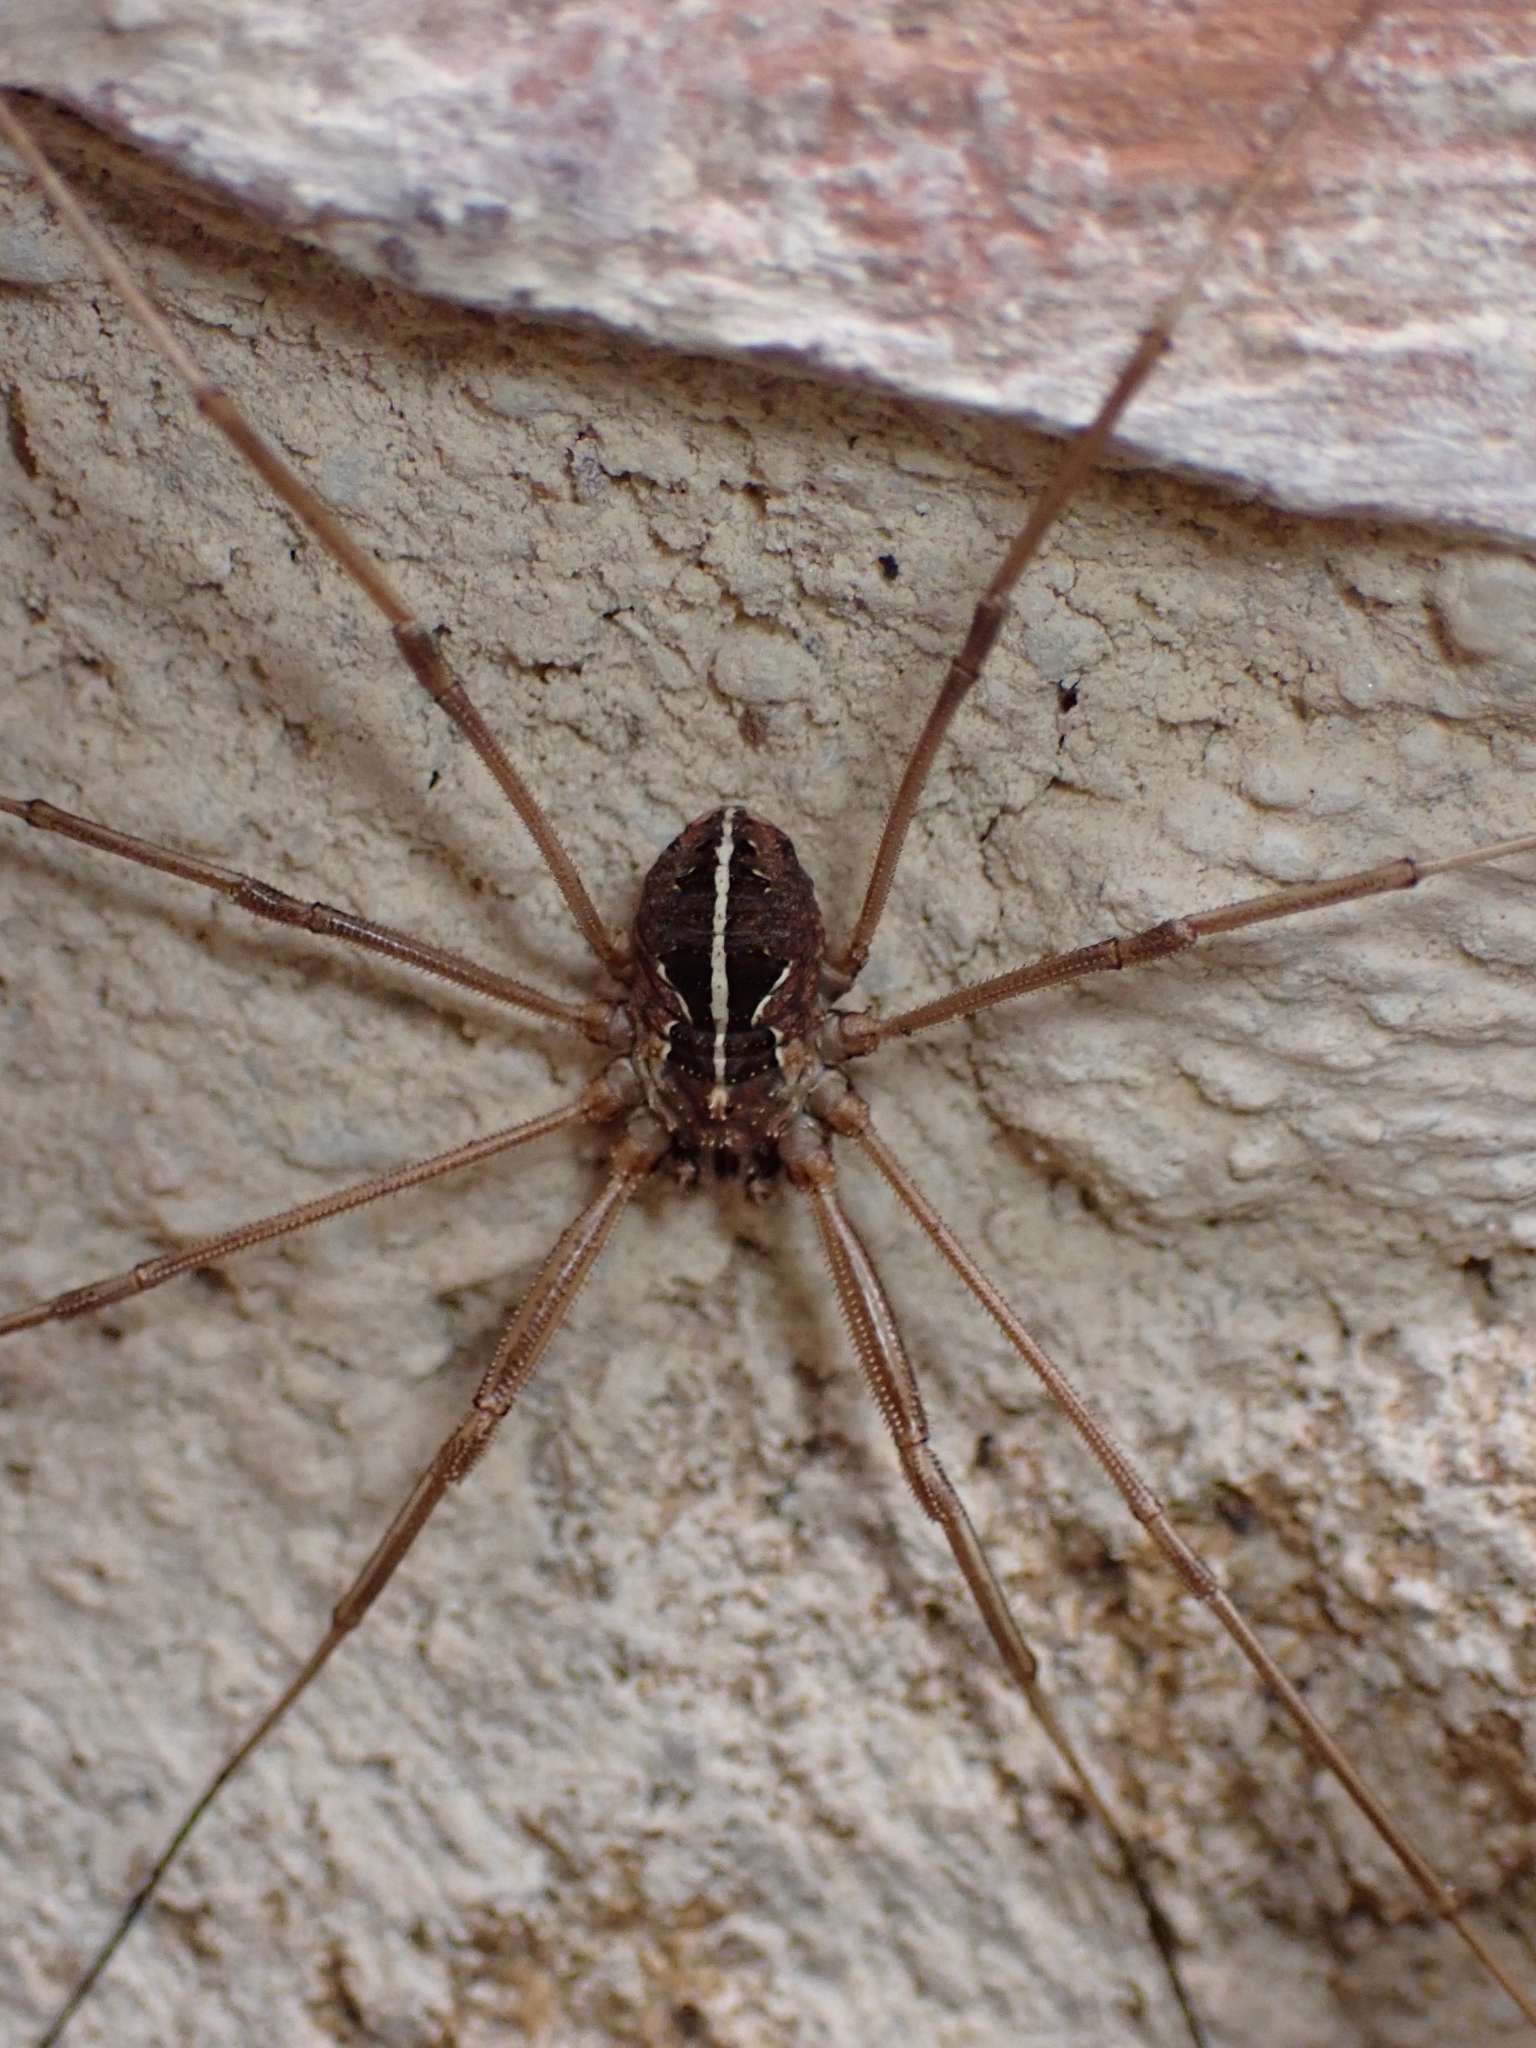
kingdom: Animalia
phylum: Arthropoda
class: Arachnida
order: Opiliones
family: Phalangiidae
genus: Metaphalangium
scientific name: Metaphalangium cirtanum
